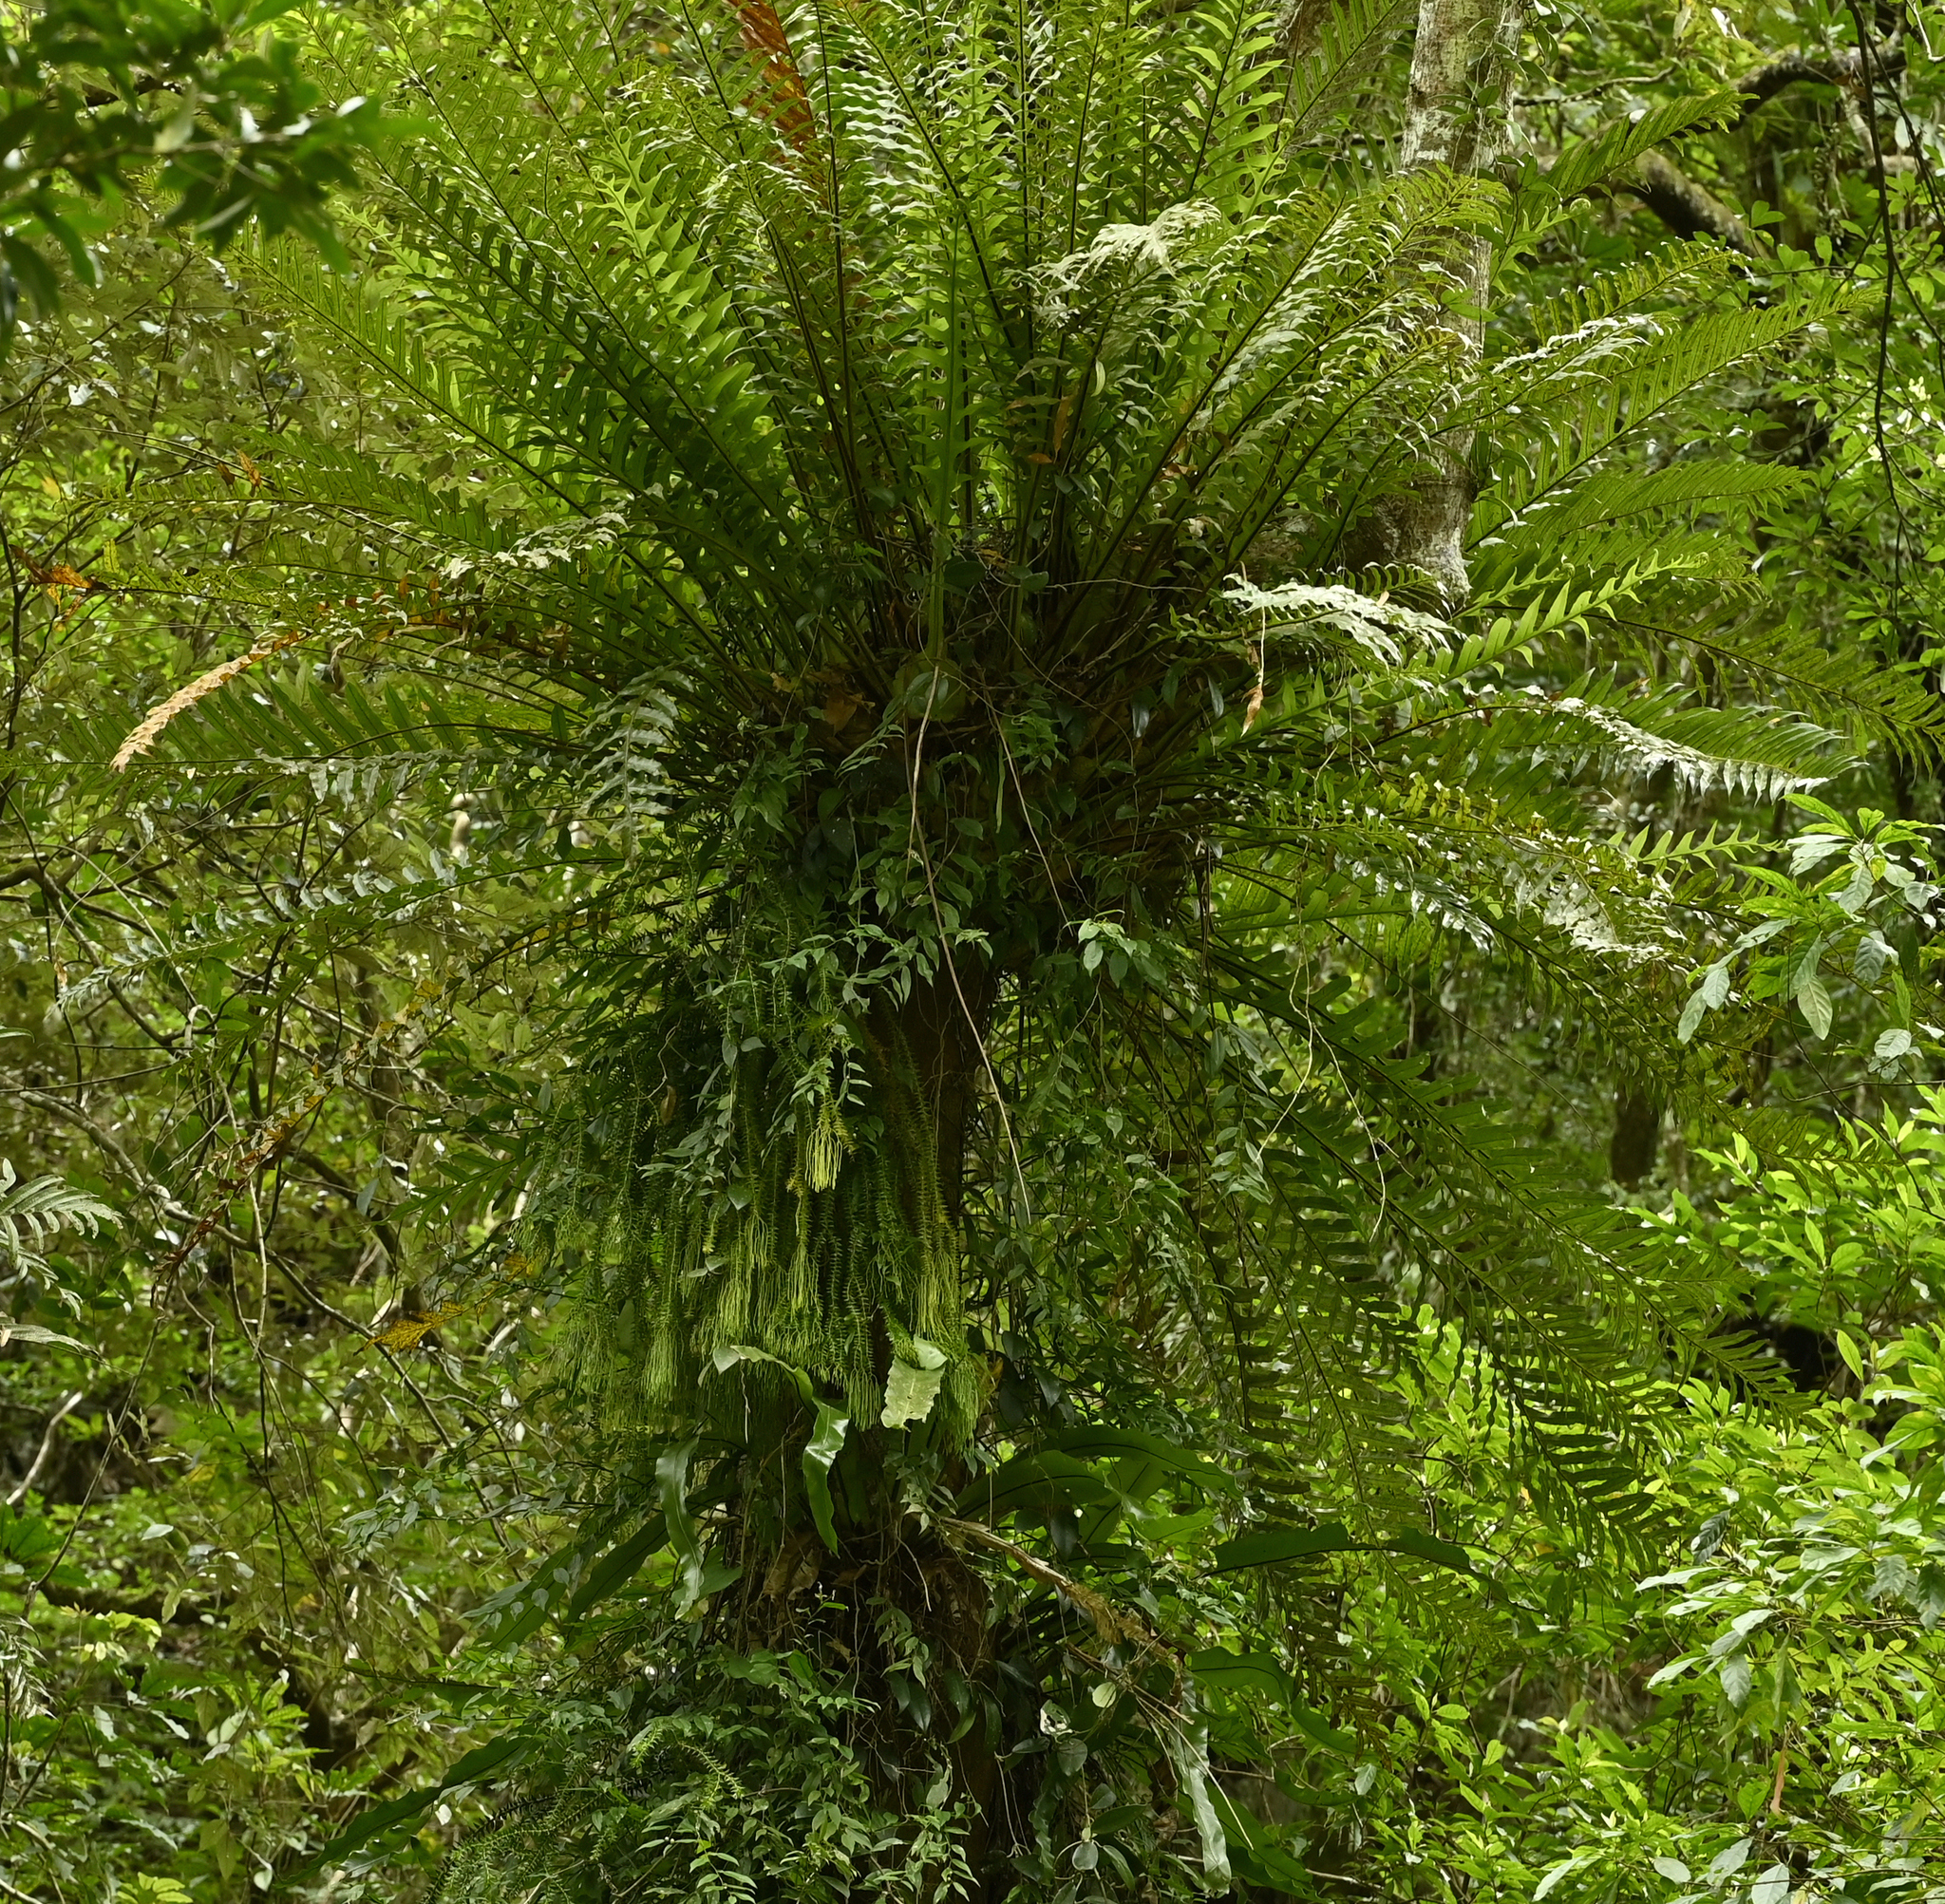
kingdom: Plantae
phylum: Tracheophyta
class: Lycopodiopsida
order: Lycopodiales
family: Lycopodiaceae
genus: Phlegmariurus
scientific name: Phlegmariurus phlegmaria
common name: Coarse tassel-fern
